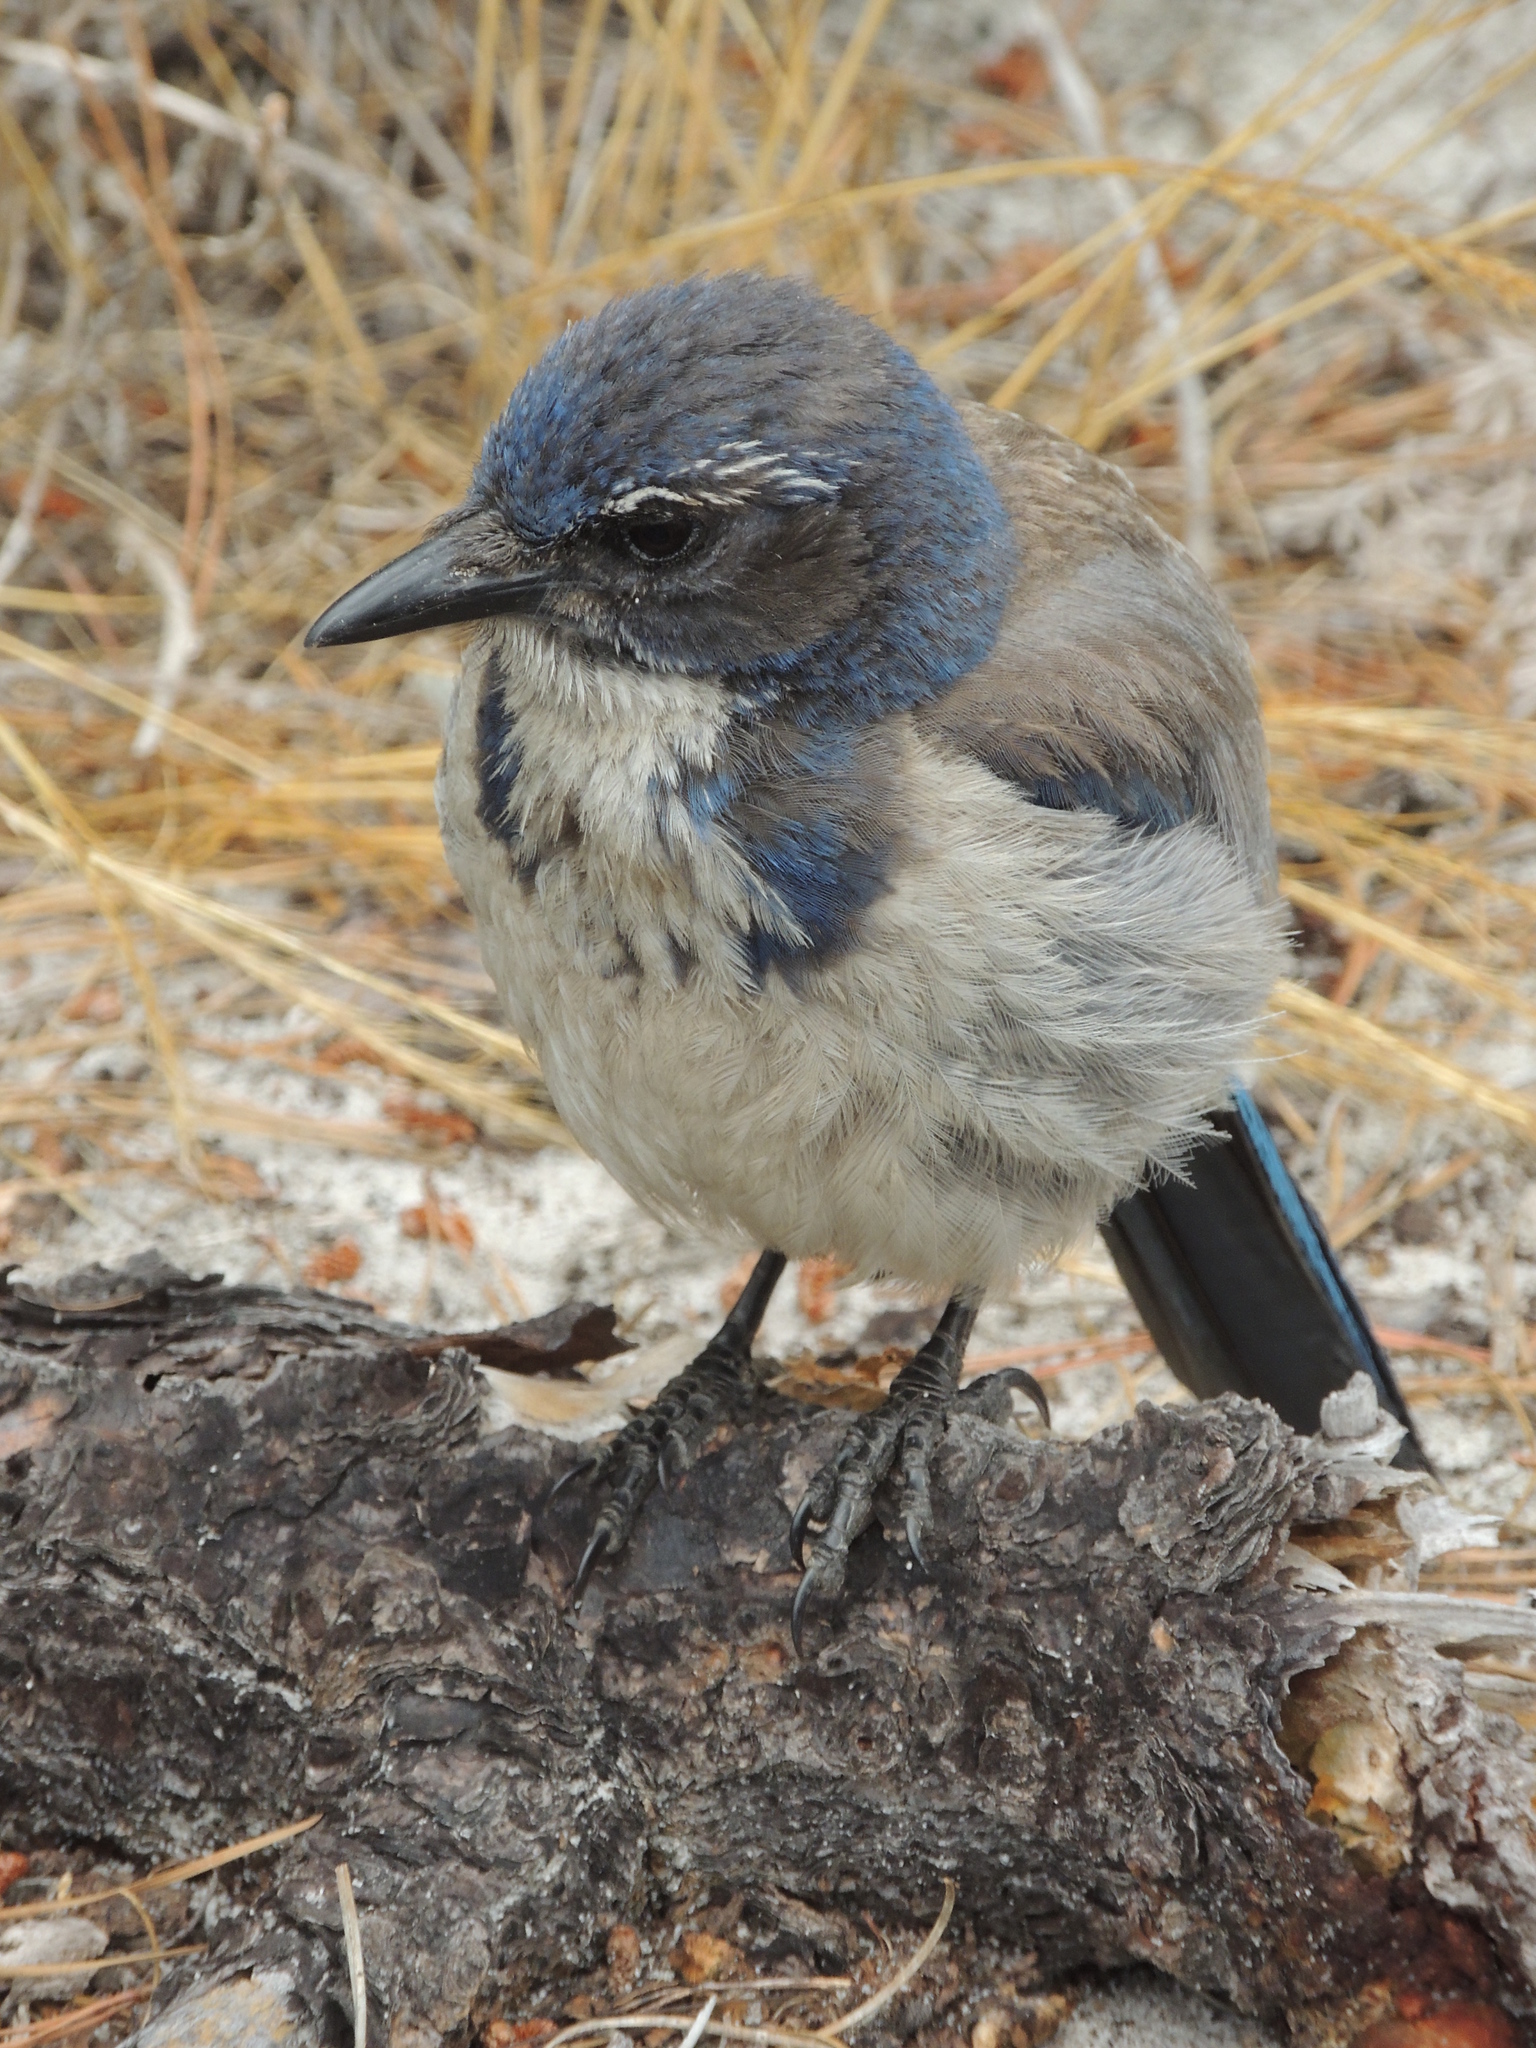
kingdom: Animalia
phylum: Chordata
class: Aves
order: Passeriformes
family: Corvidae
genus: Aphelocoma
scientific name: Aphelocoma californica
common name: California scrub-jay
